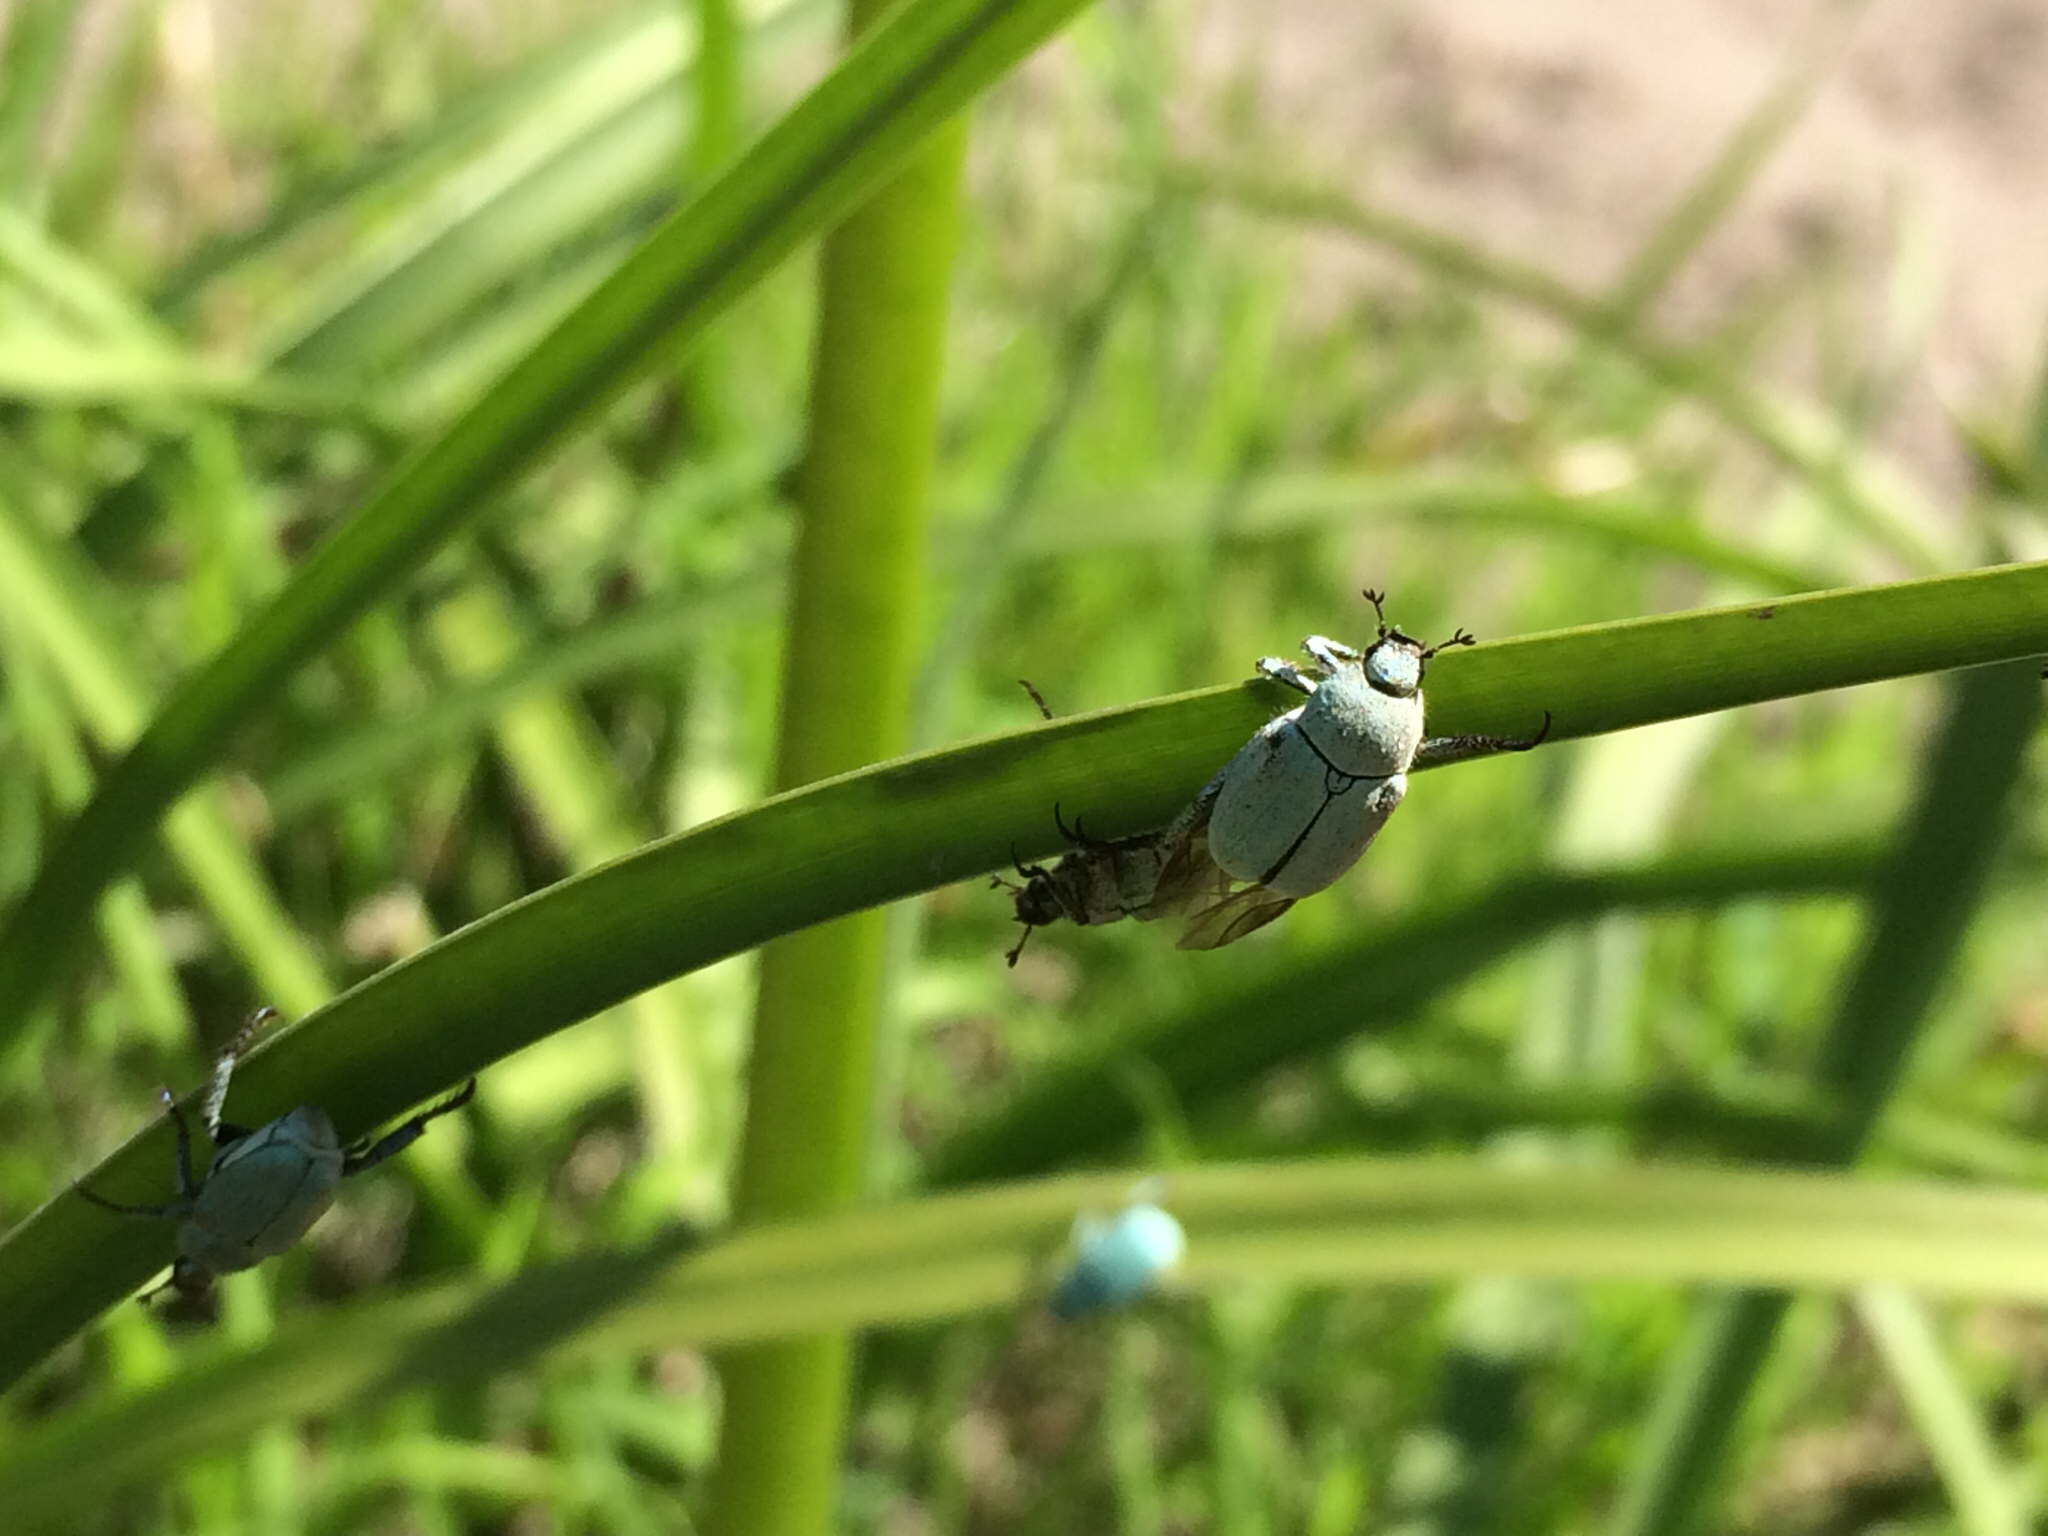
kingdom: Animalia
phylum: Arthropoda
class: Insecta
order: Coleoptera
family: Scarabaeidae
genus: Hoplia
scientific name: Hoplia parvula
